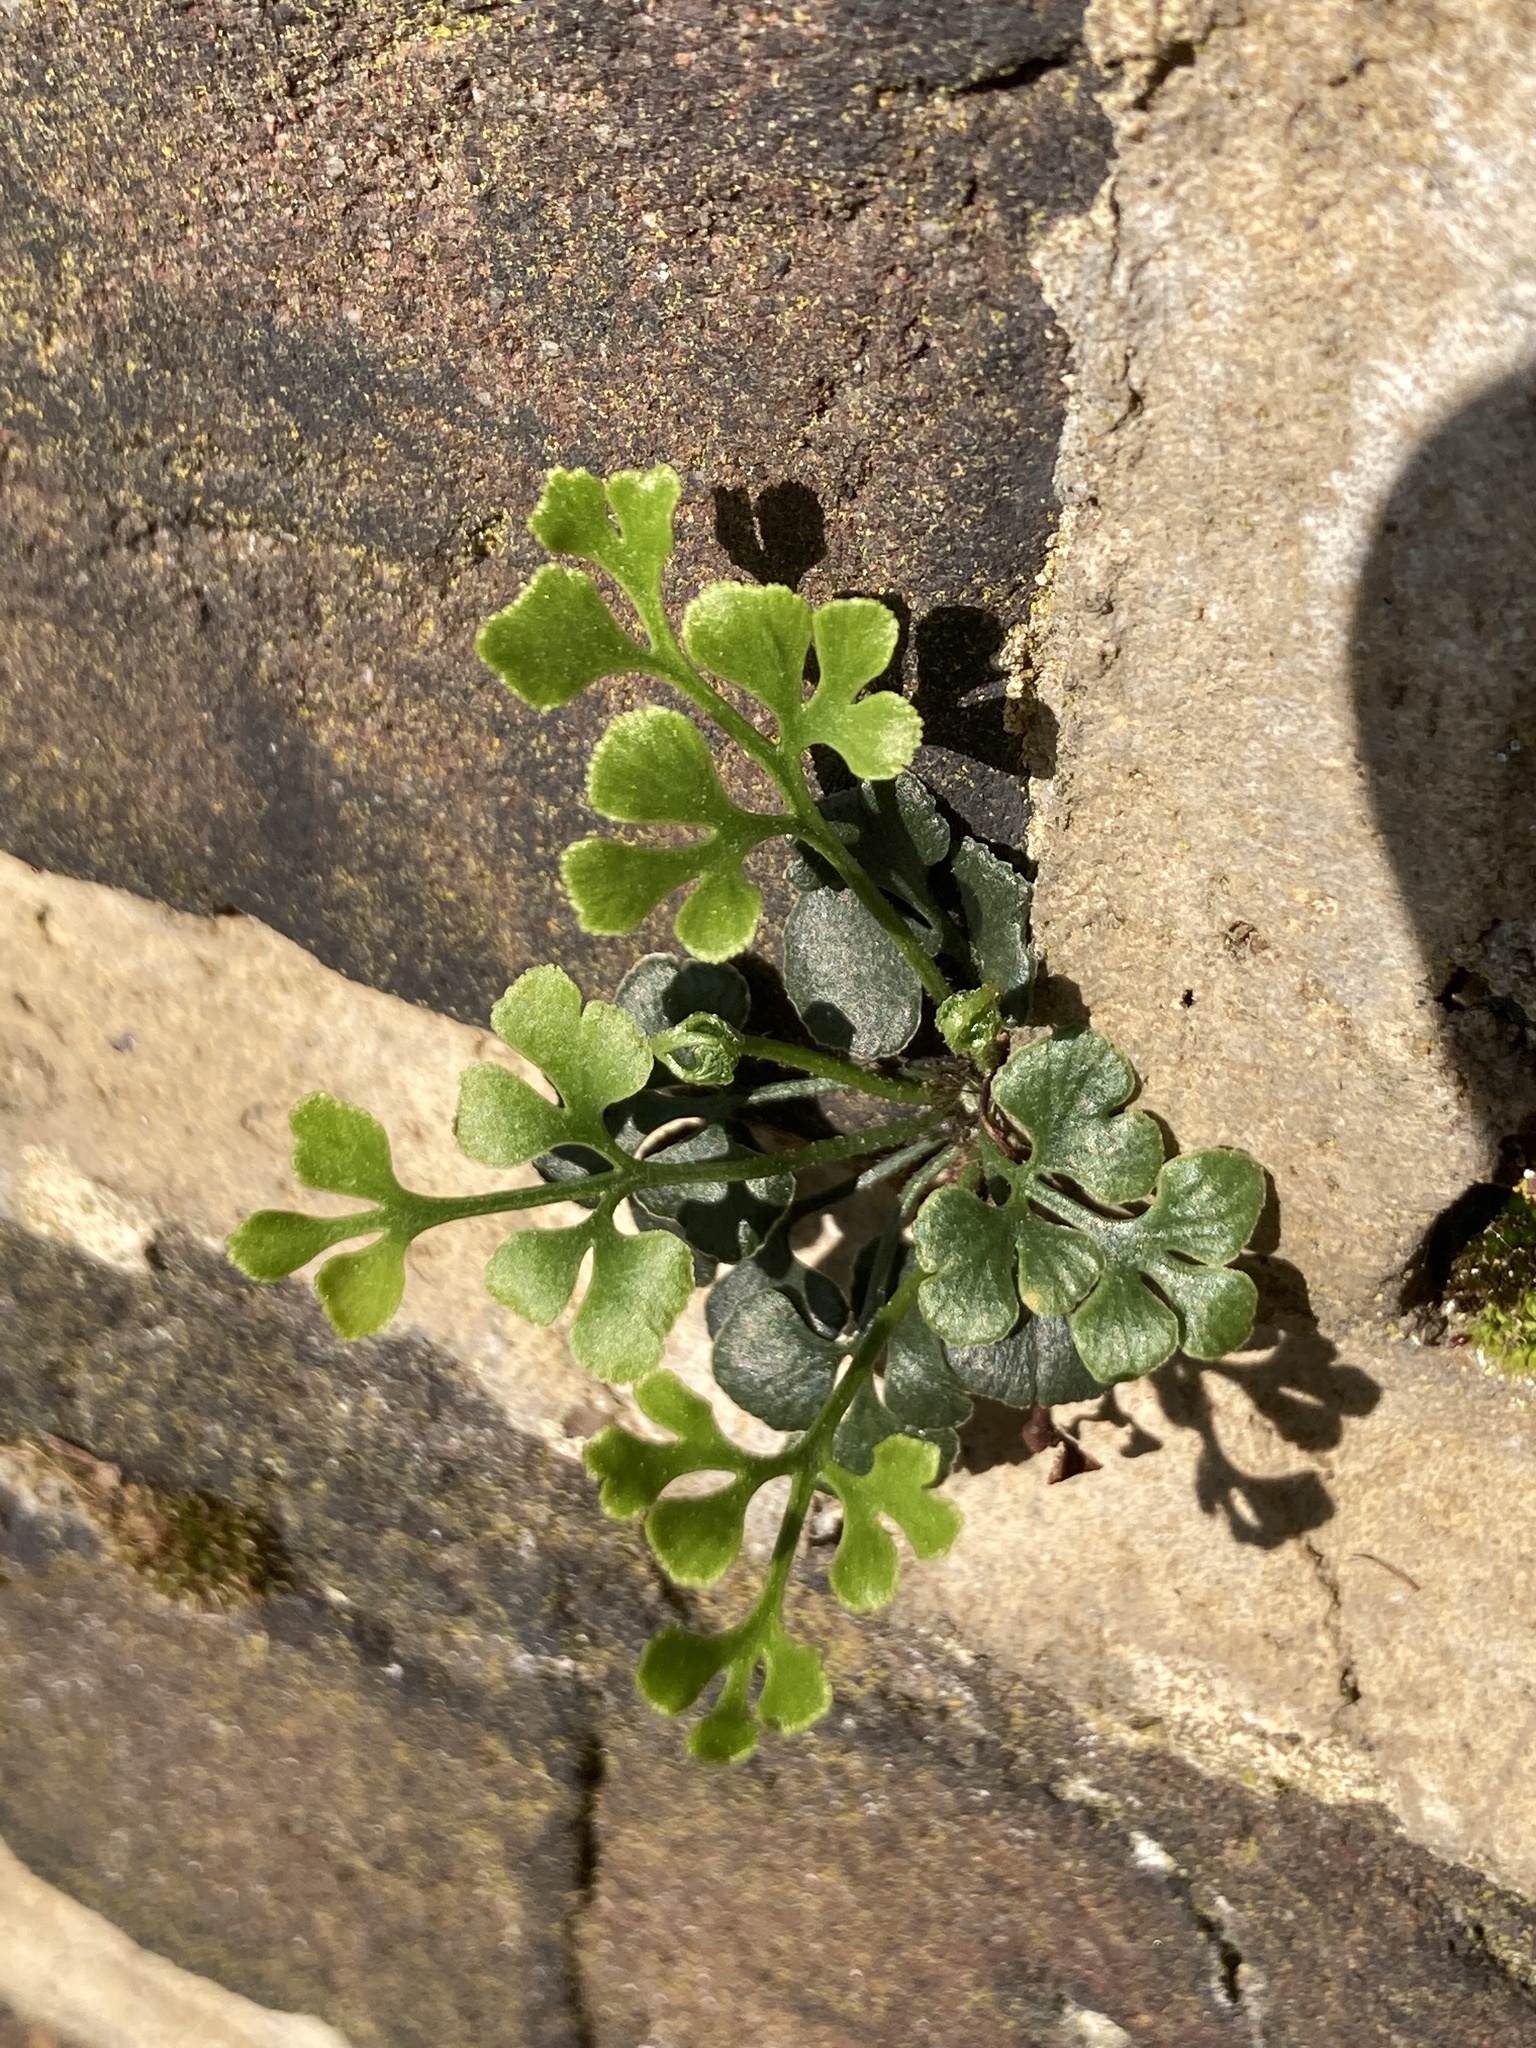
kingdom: Plantae
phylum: Tracheophyta
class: Polypodiopsida
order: Polypodiales
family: Aspleniaceae
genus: Asplenium
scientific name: Asplenium ruta-muraria
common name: Wall-rue
